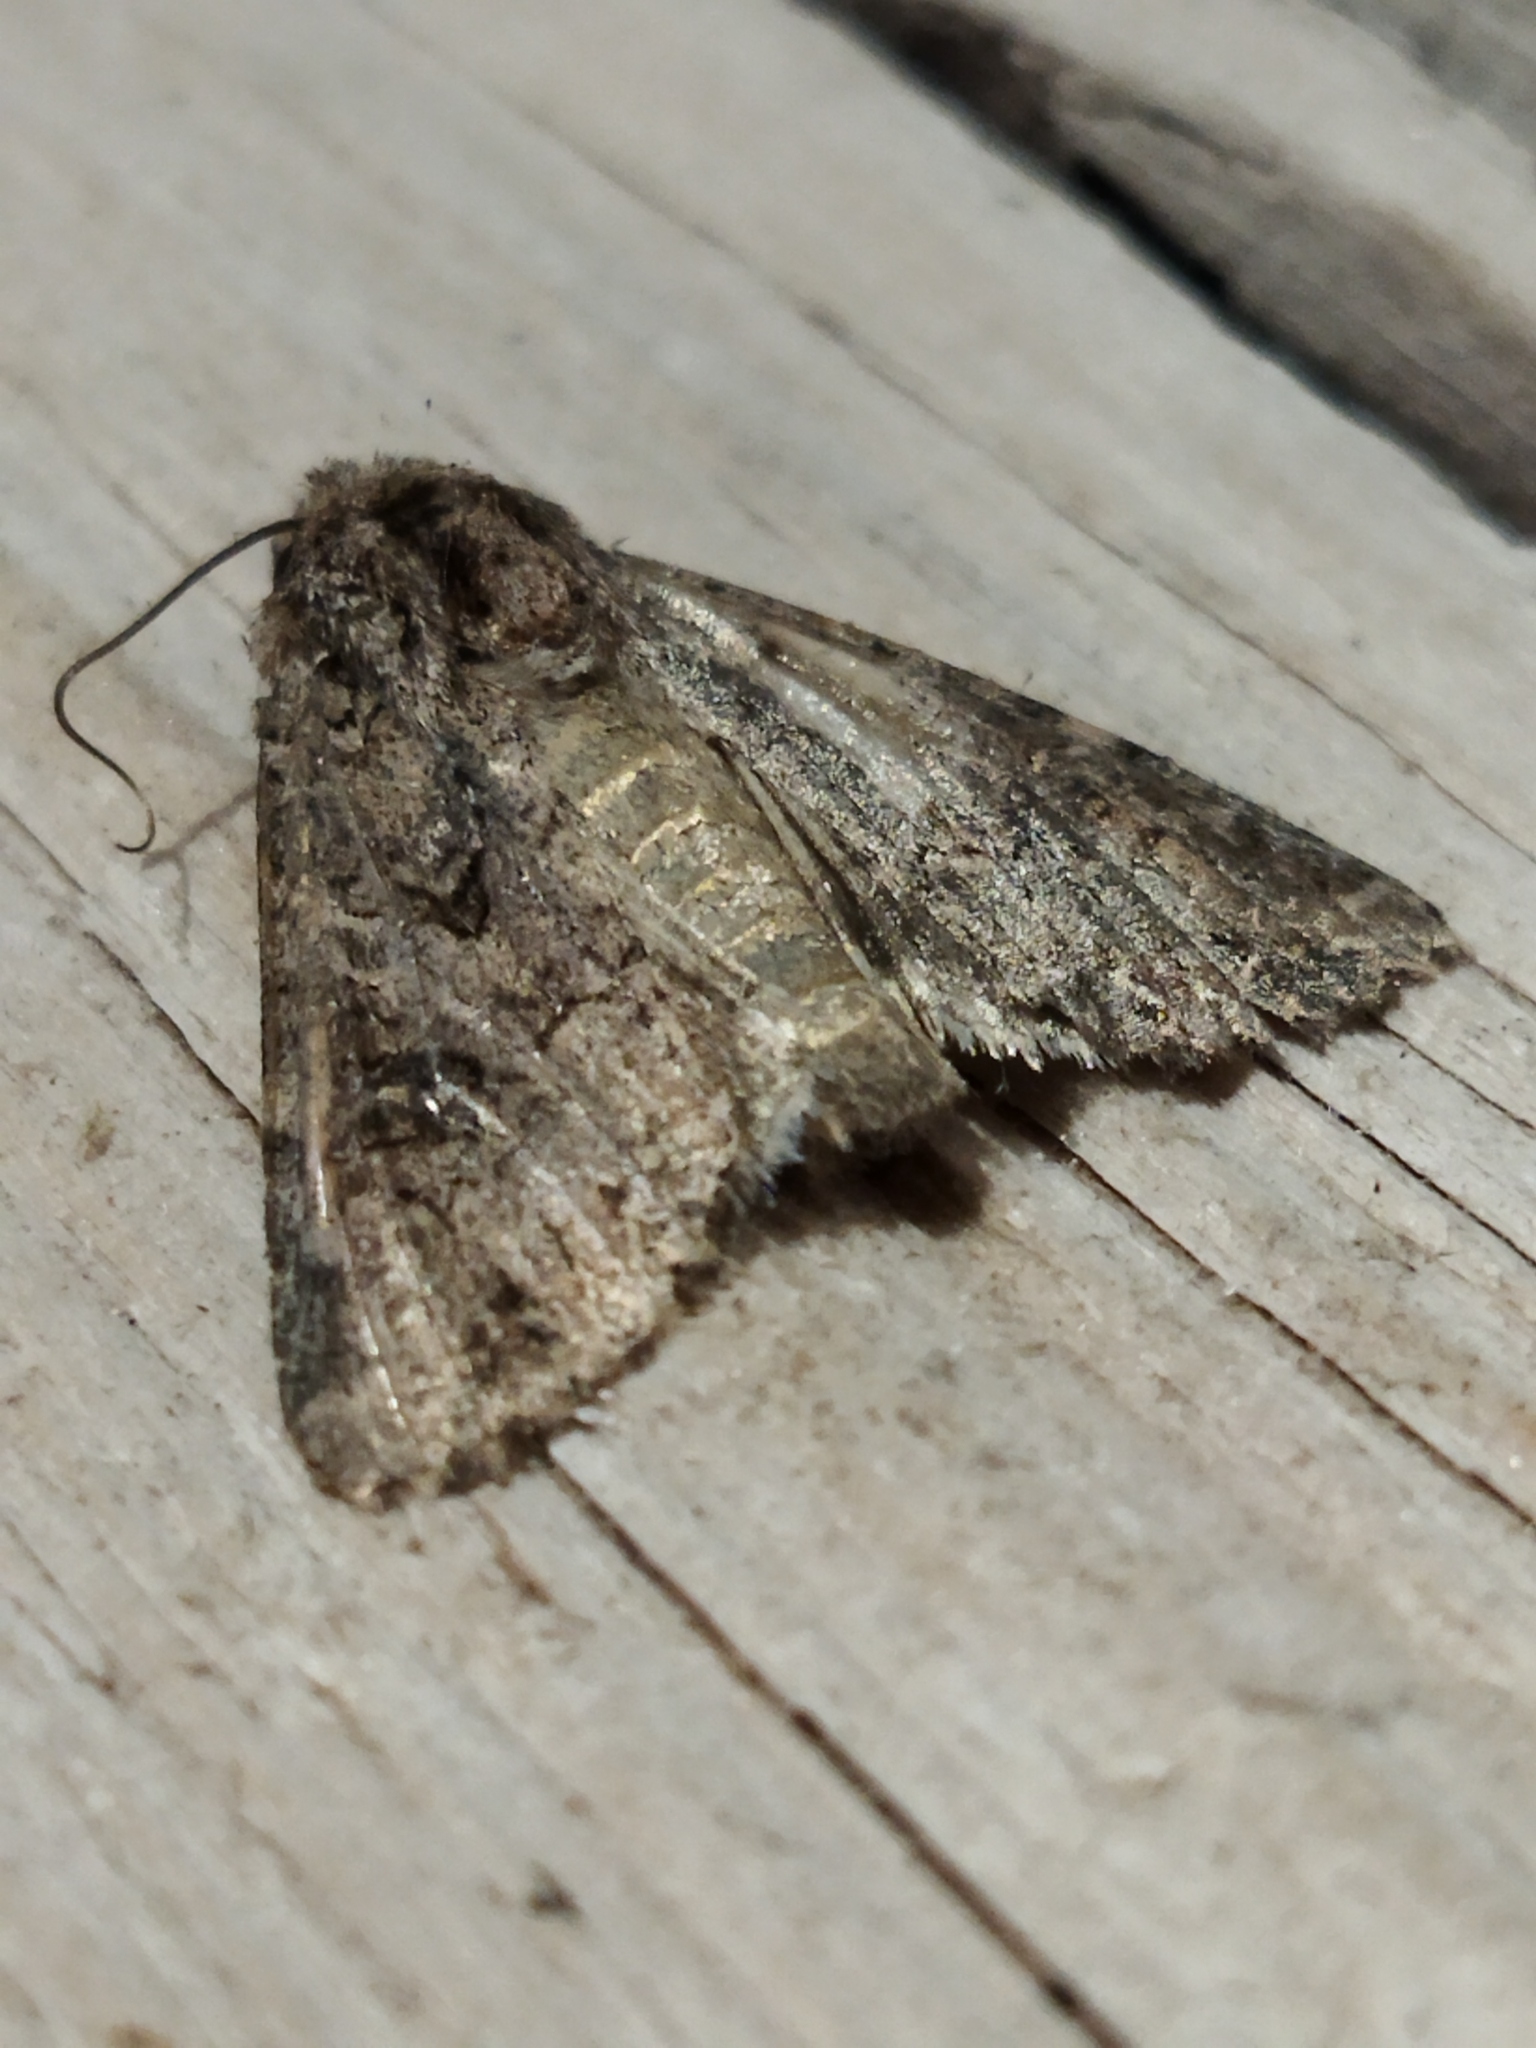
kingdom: Animalia
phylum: Arthropoda
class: Insecta
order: Lepidoptera
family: Noctuidae
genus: Anarta
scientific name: Anarta trifolii
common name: Clover cutworm moth
